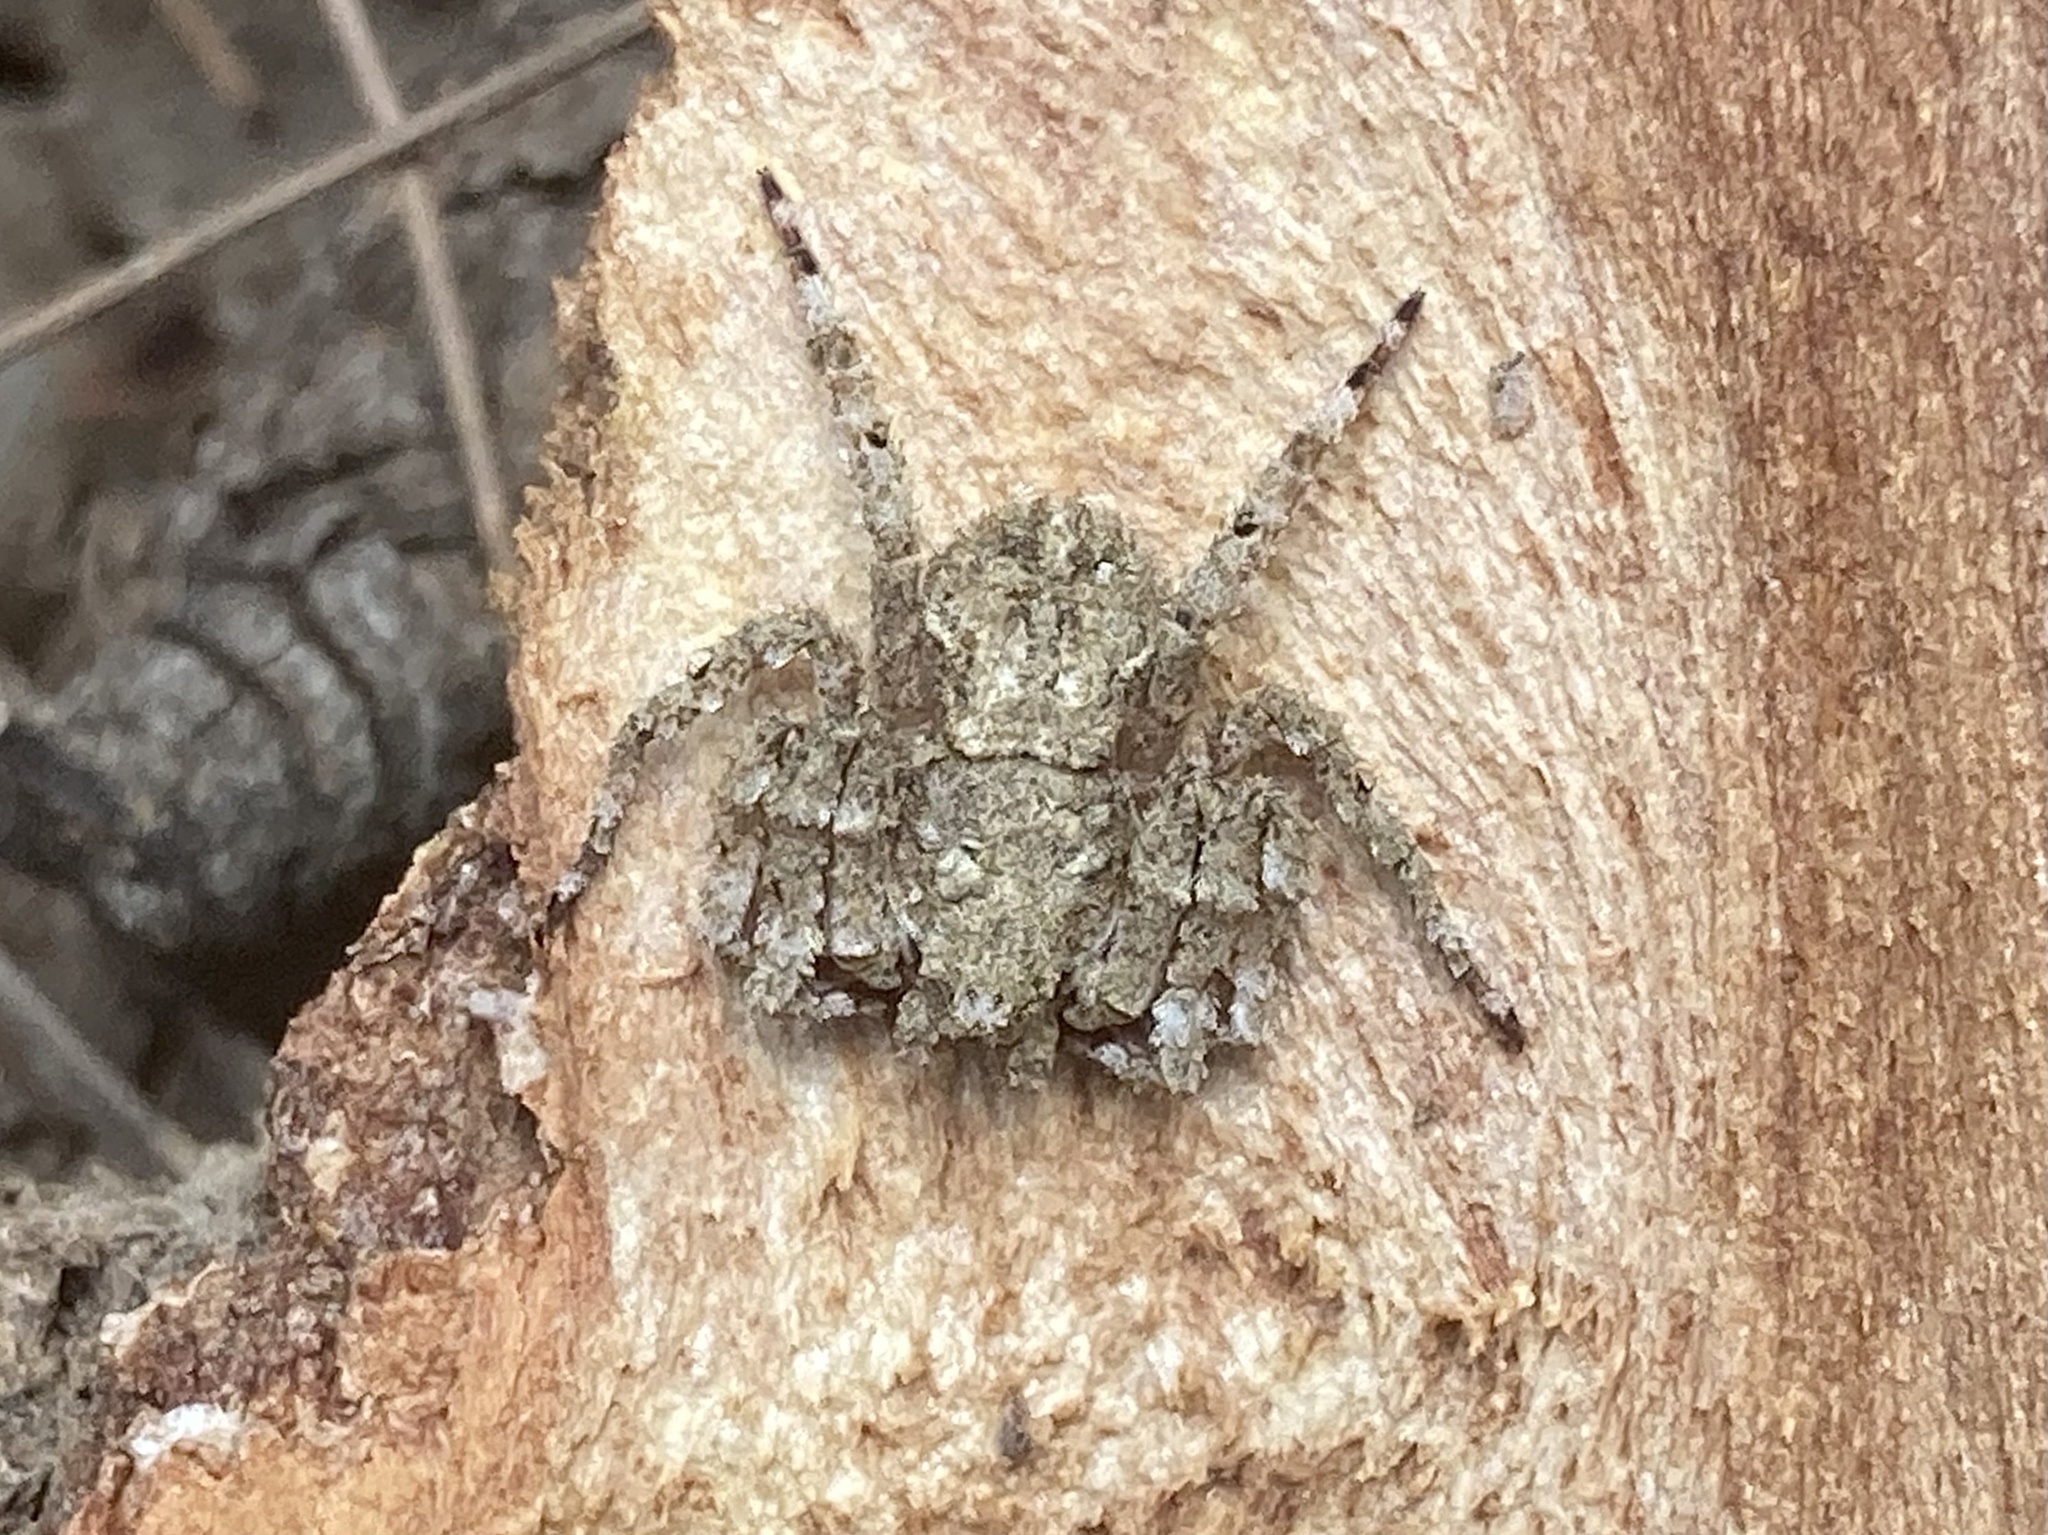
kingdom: Animalia
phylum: Arthropoda
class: Arachnida
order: Araneae
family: Thomisidae
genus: Stephanopis
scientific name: Stephanopis altifrons
